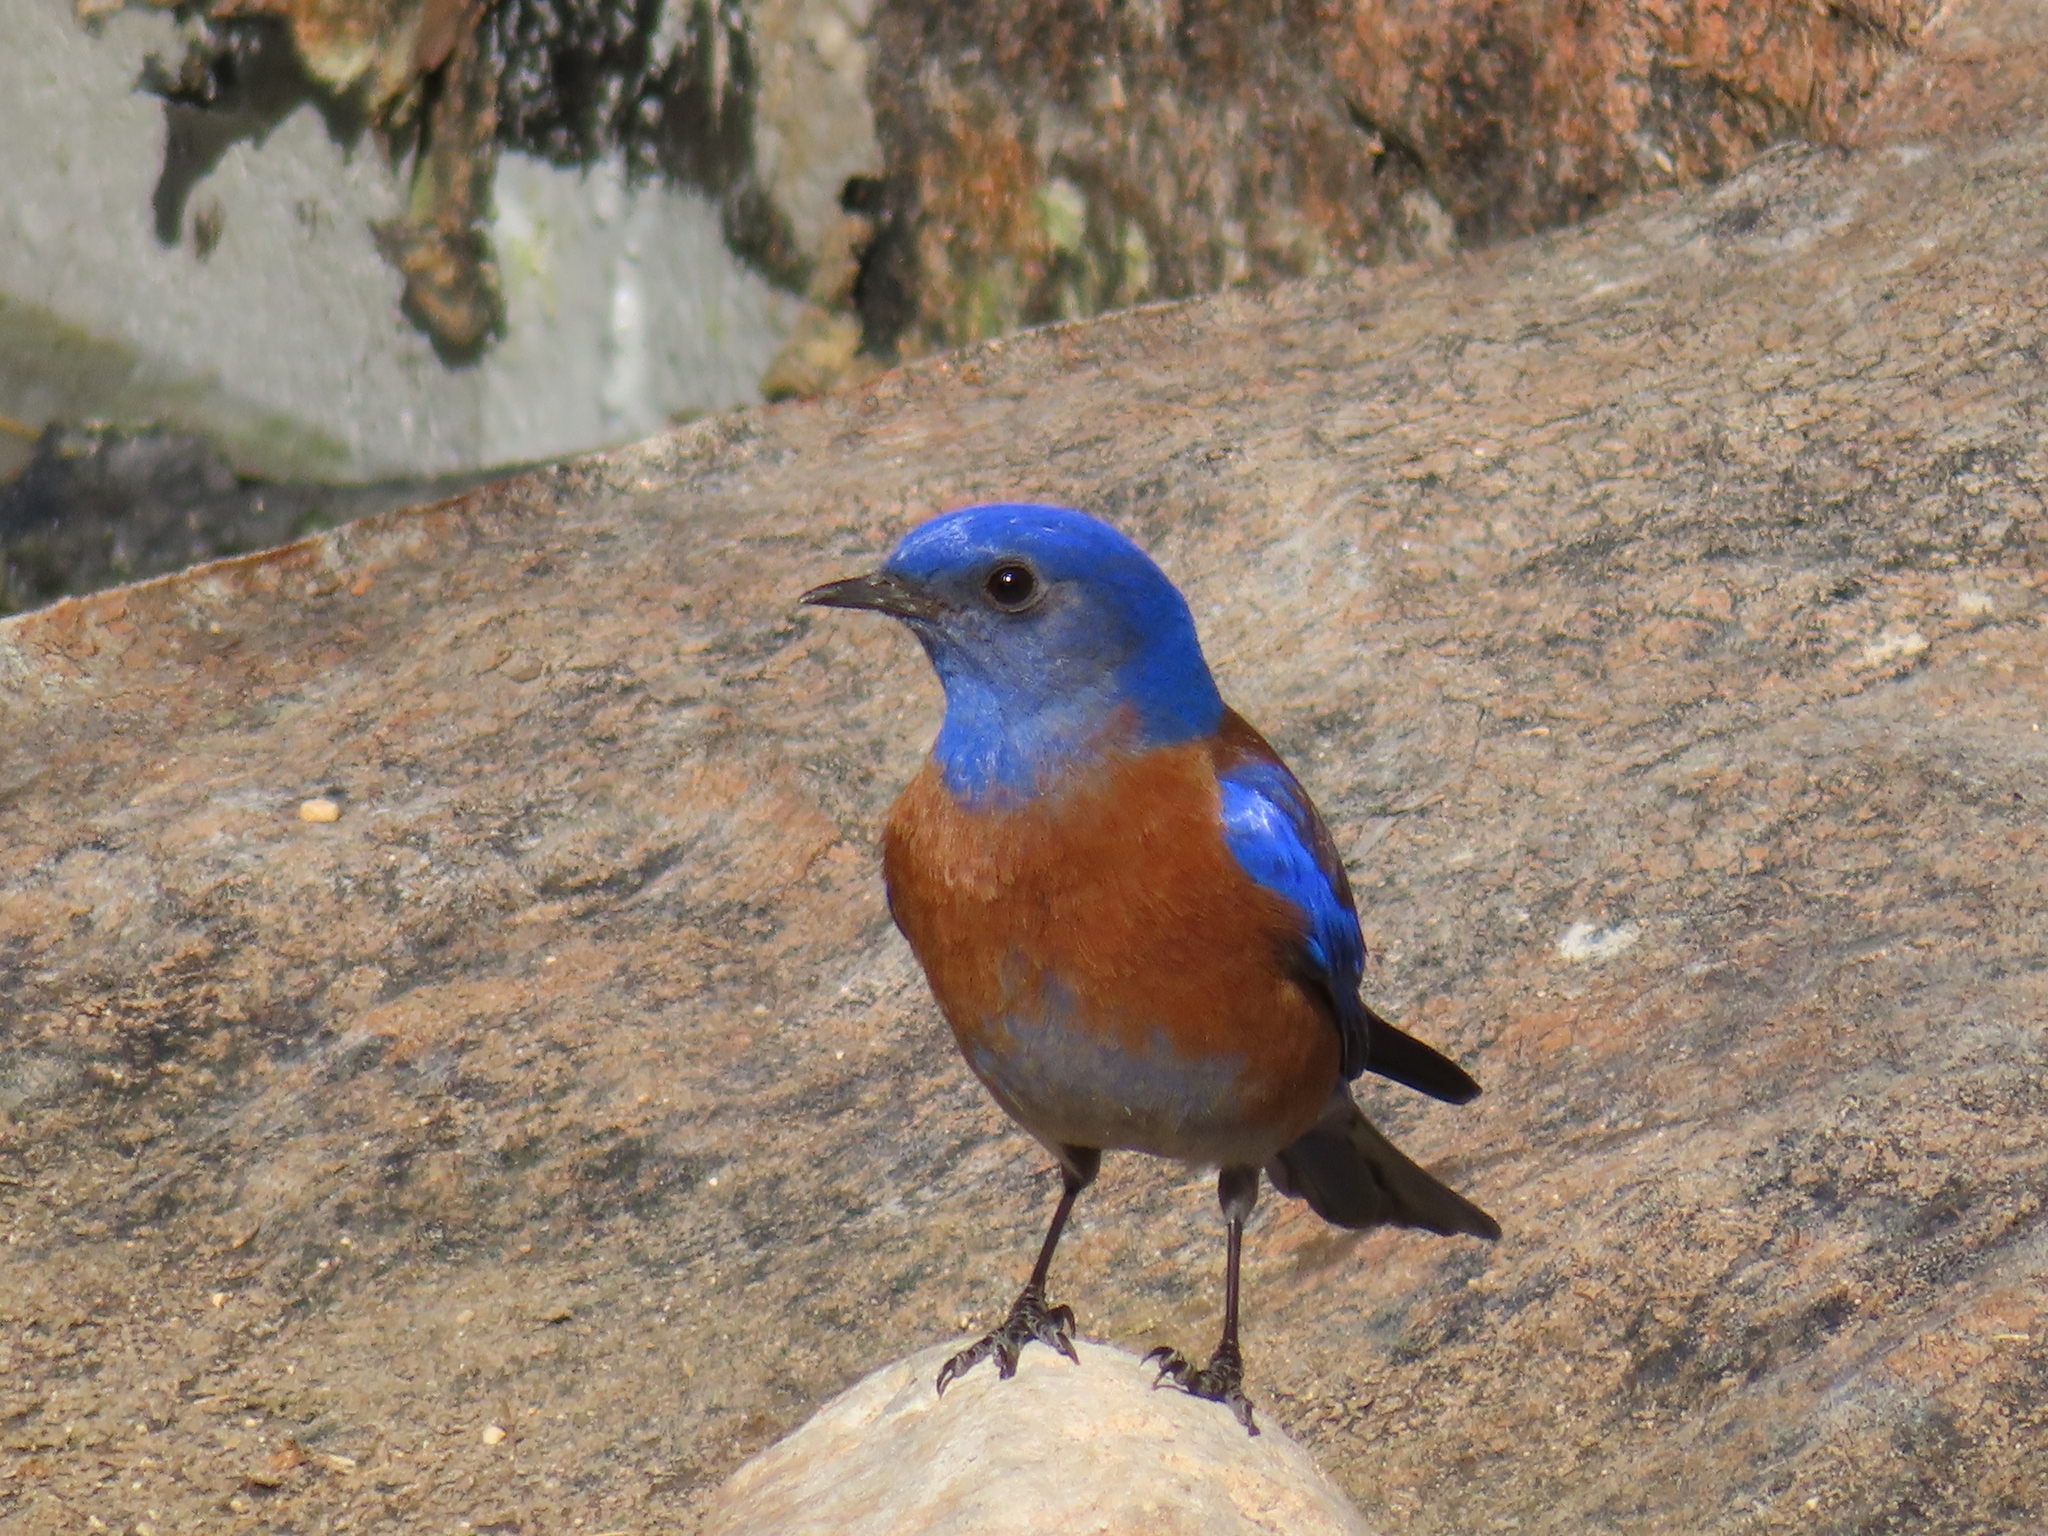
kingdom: Animalia
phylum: Chordata
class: Aves
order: Passeriformes
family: Turdidae
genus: Sialia
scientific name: Sialia mexicana
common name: Western bluebird
